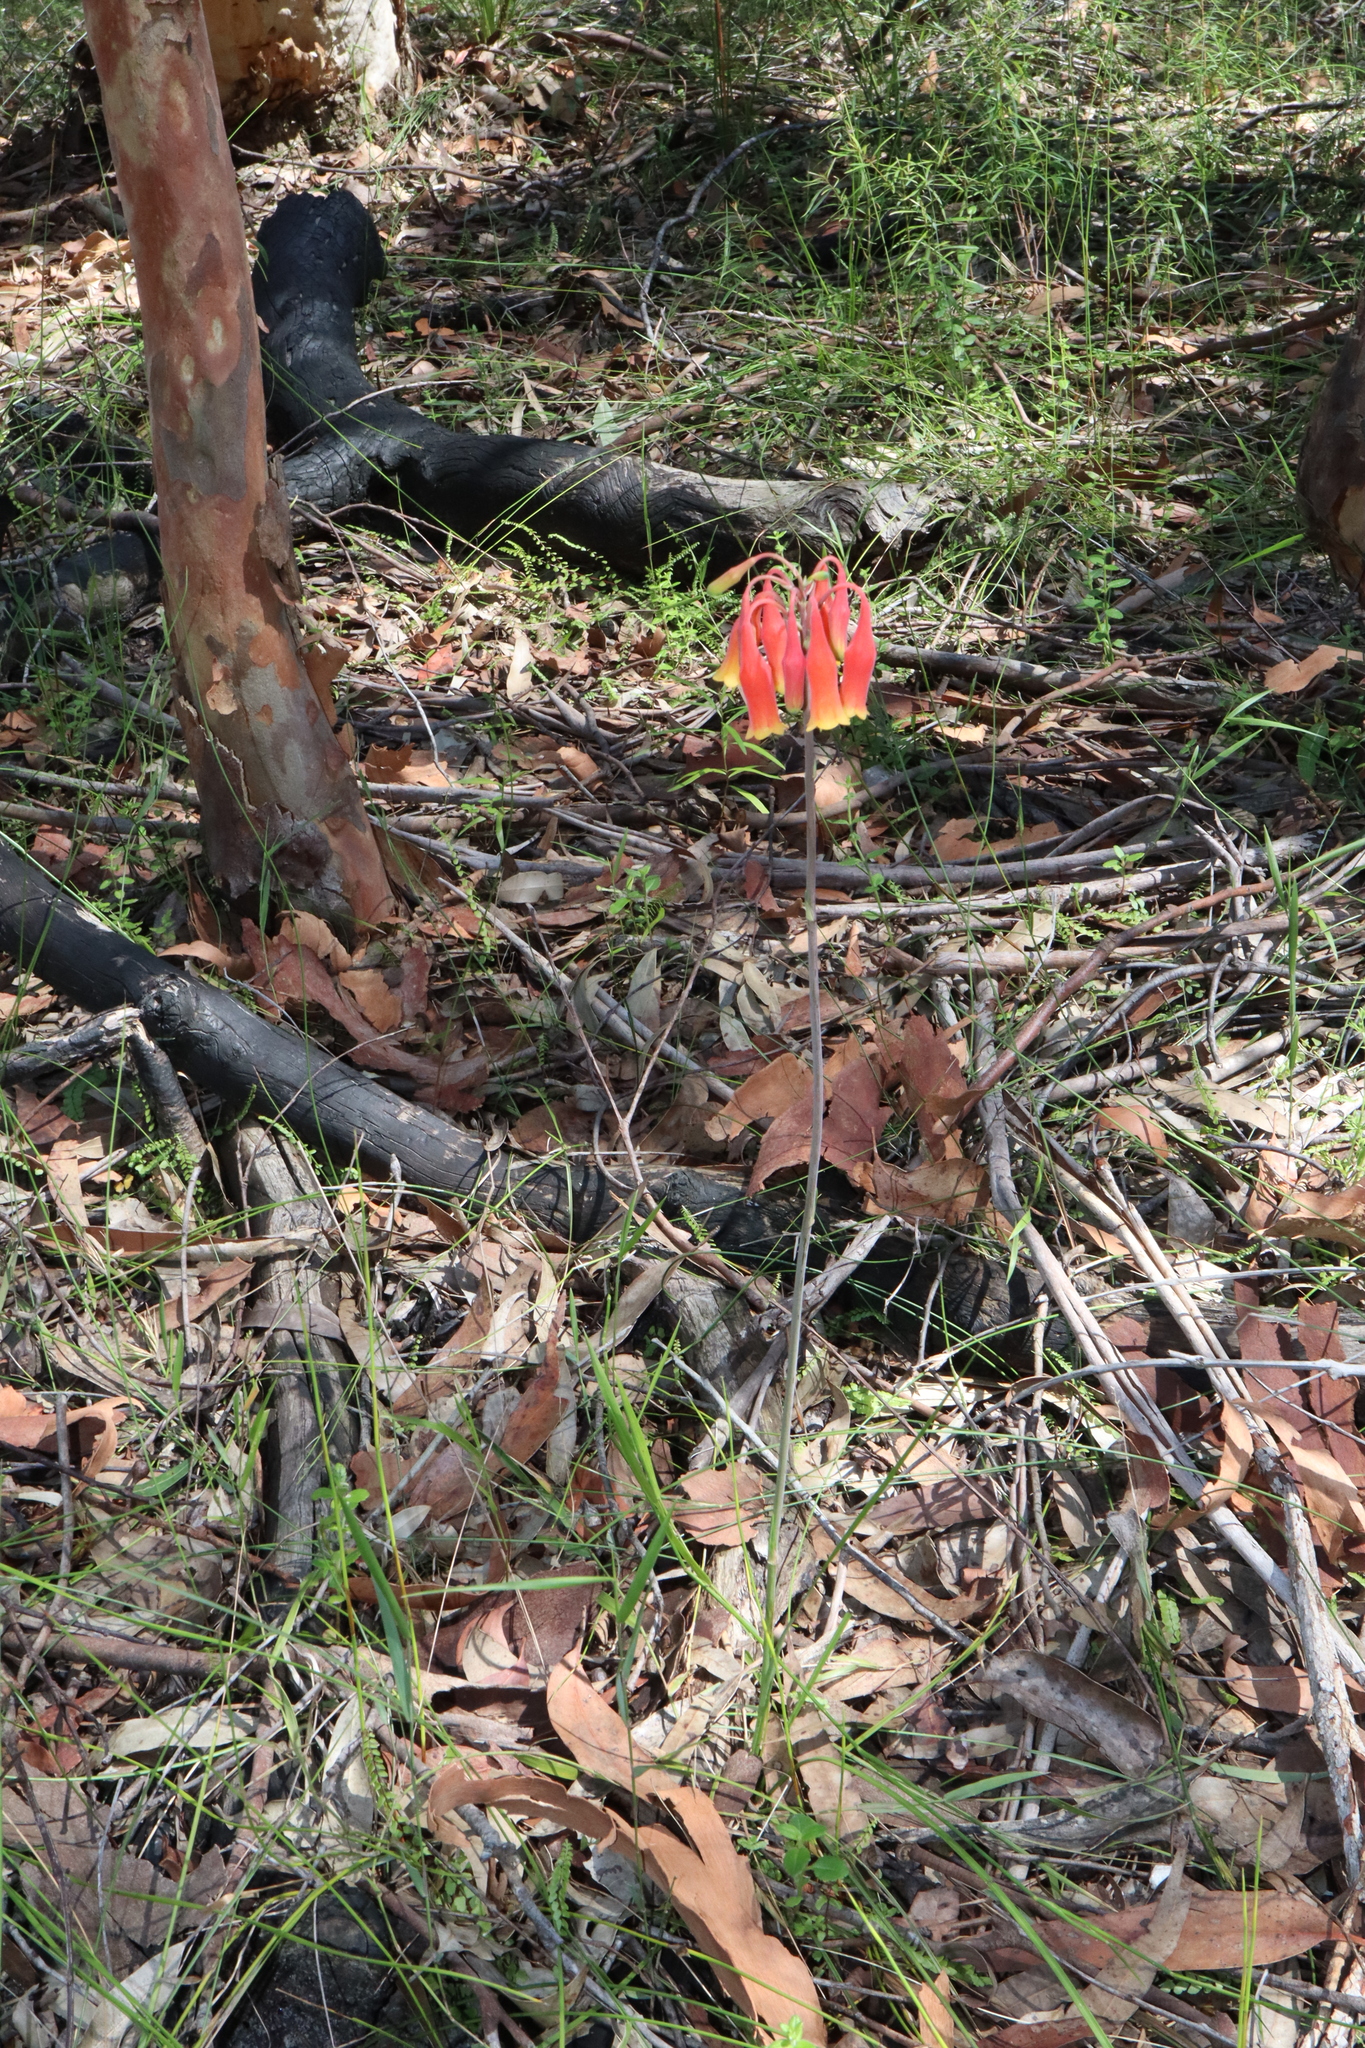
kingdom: Plantae
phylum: Tracheophyta
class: Liliopsida
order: Asparagales
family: Blandfordiaceae
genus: Blandfordia
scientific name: Blandfordia nobilis
